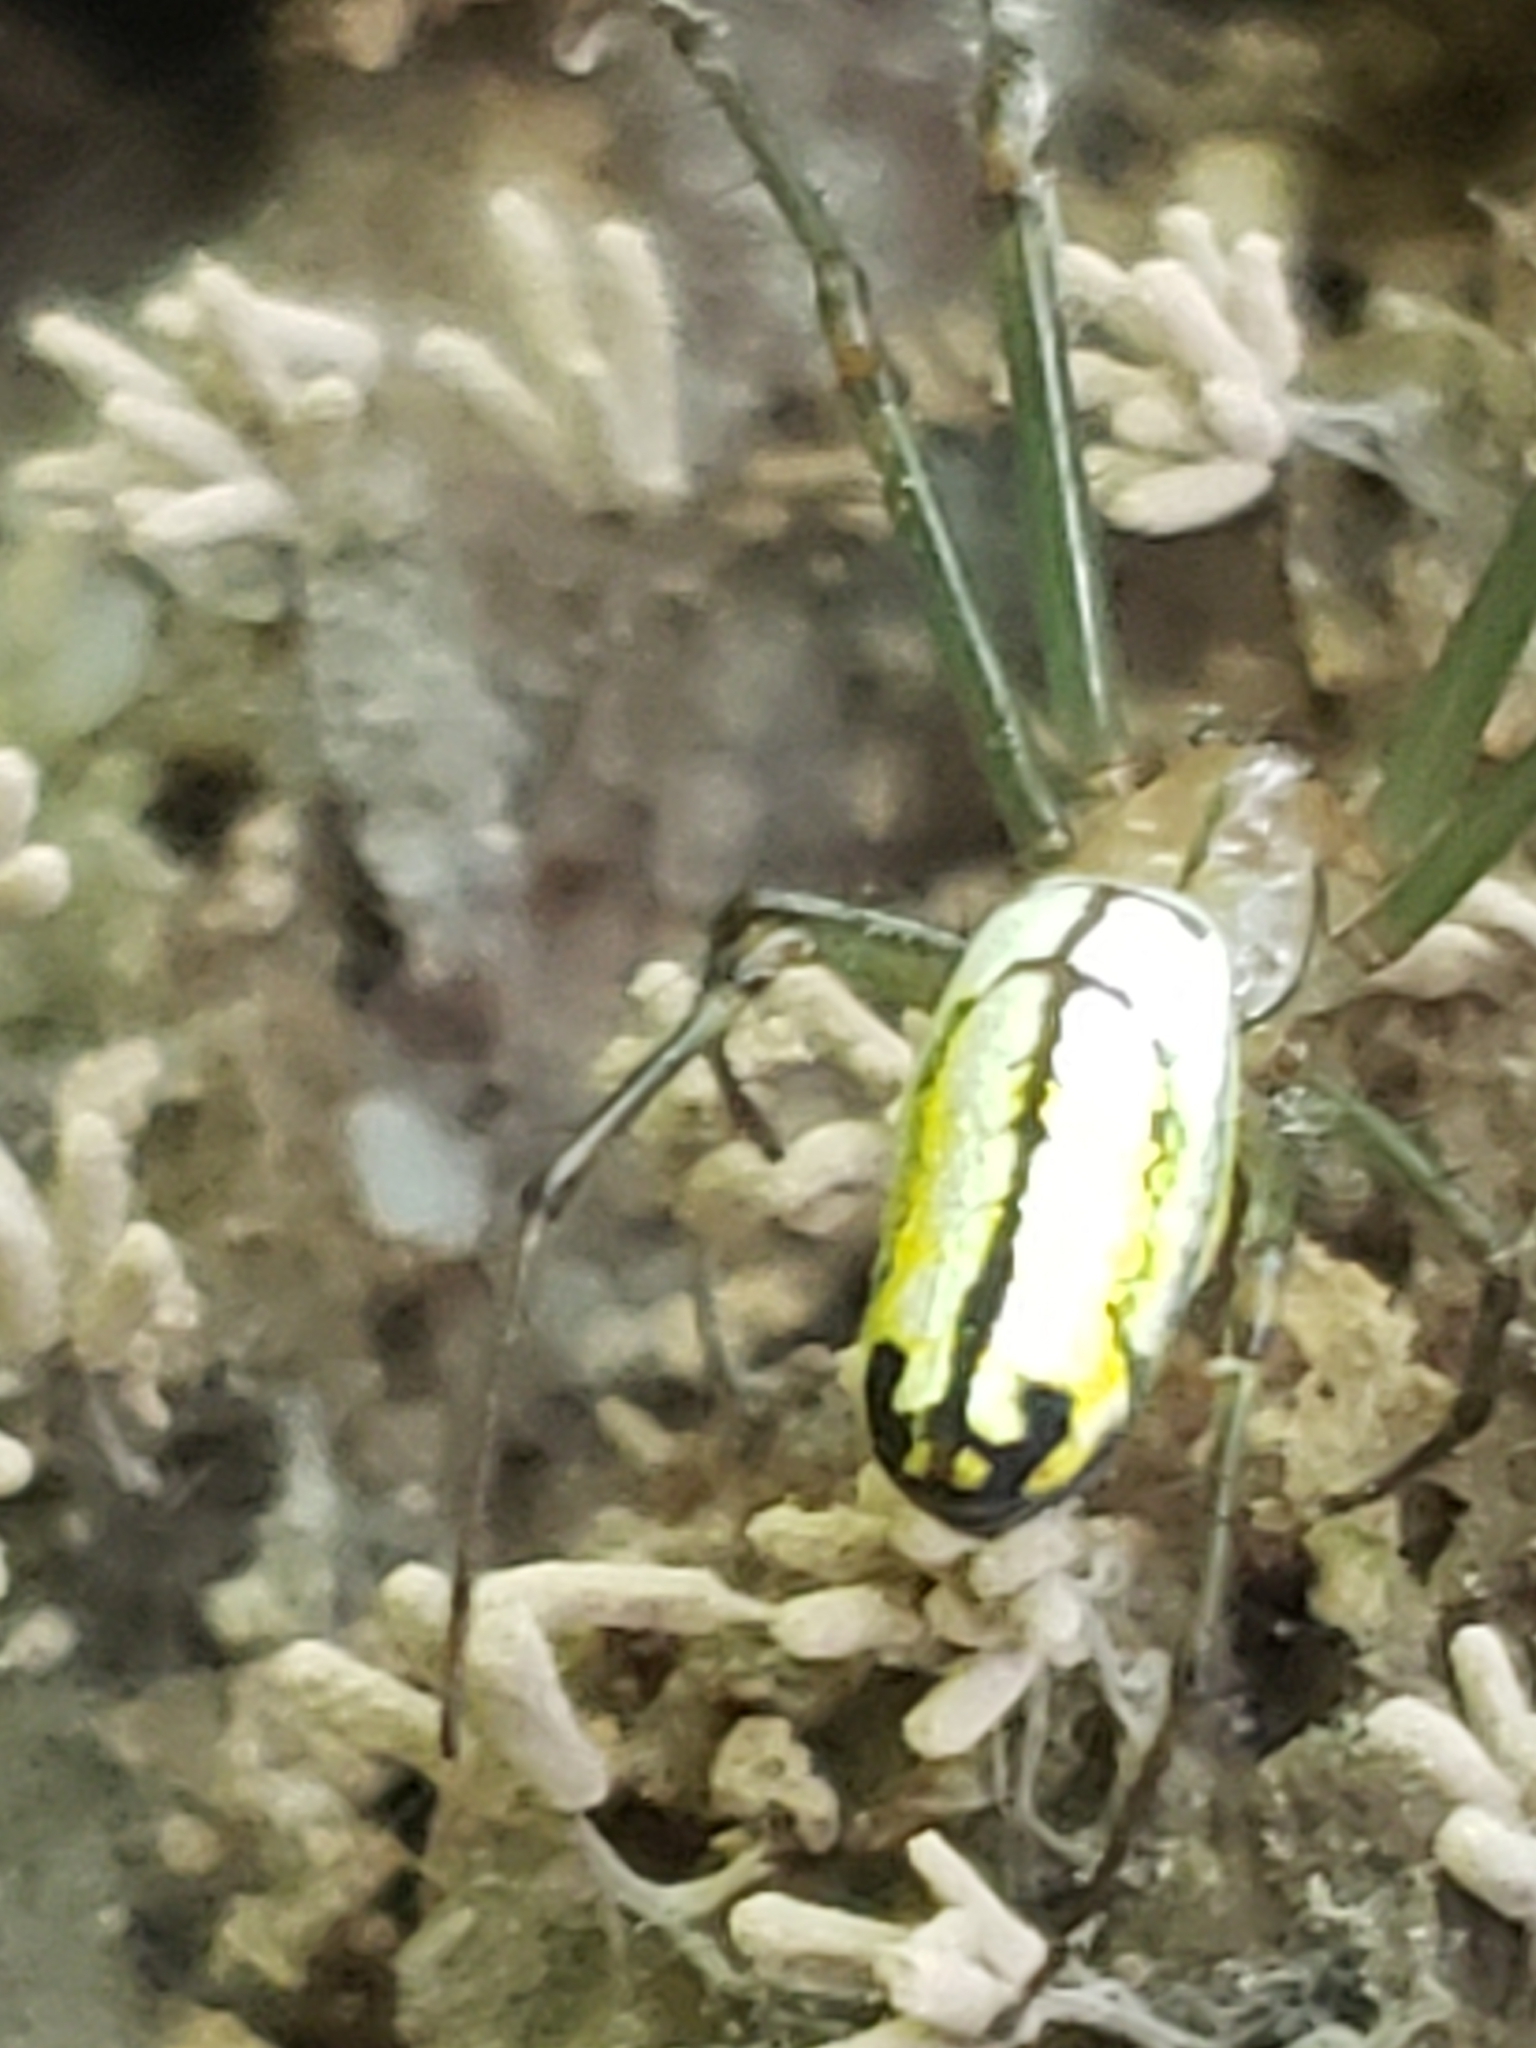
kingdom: Animalia
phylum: Arthropoda
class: Arachnida
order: Araneae
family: Tetragnathidae
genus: Leucauge
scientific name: Leucauge venusta
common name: Longjawed orb weavers
